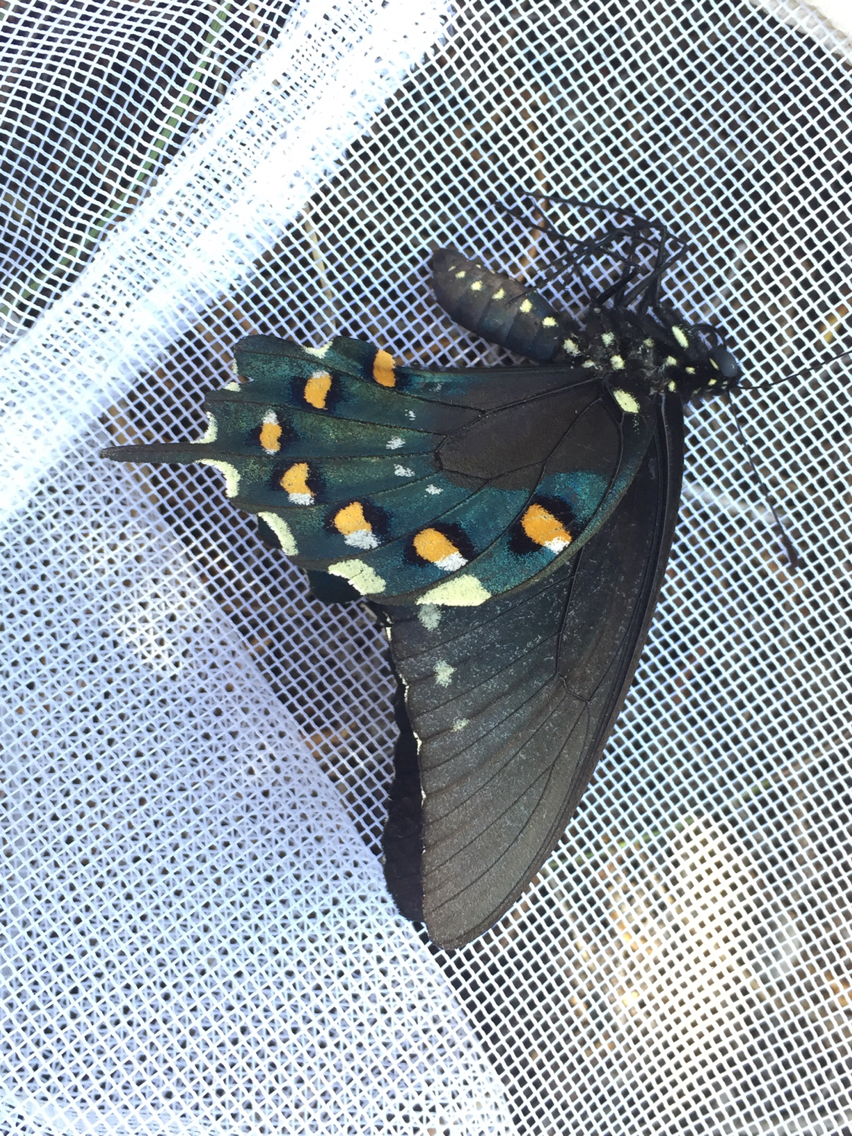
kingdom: Animalia
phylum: Arthropoda
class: Insecta
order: Lepidoptera
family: Papilionidae
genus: Battus
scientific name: Battus philenor
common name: Pipevine swallowtail
